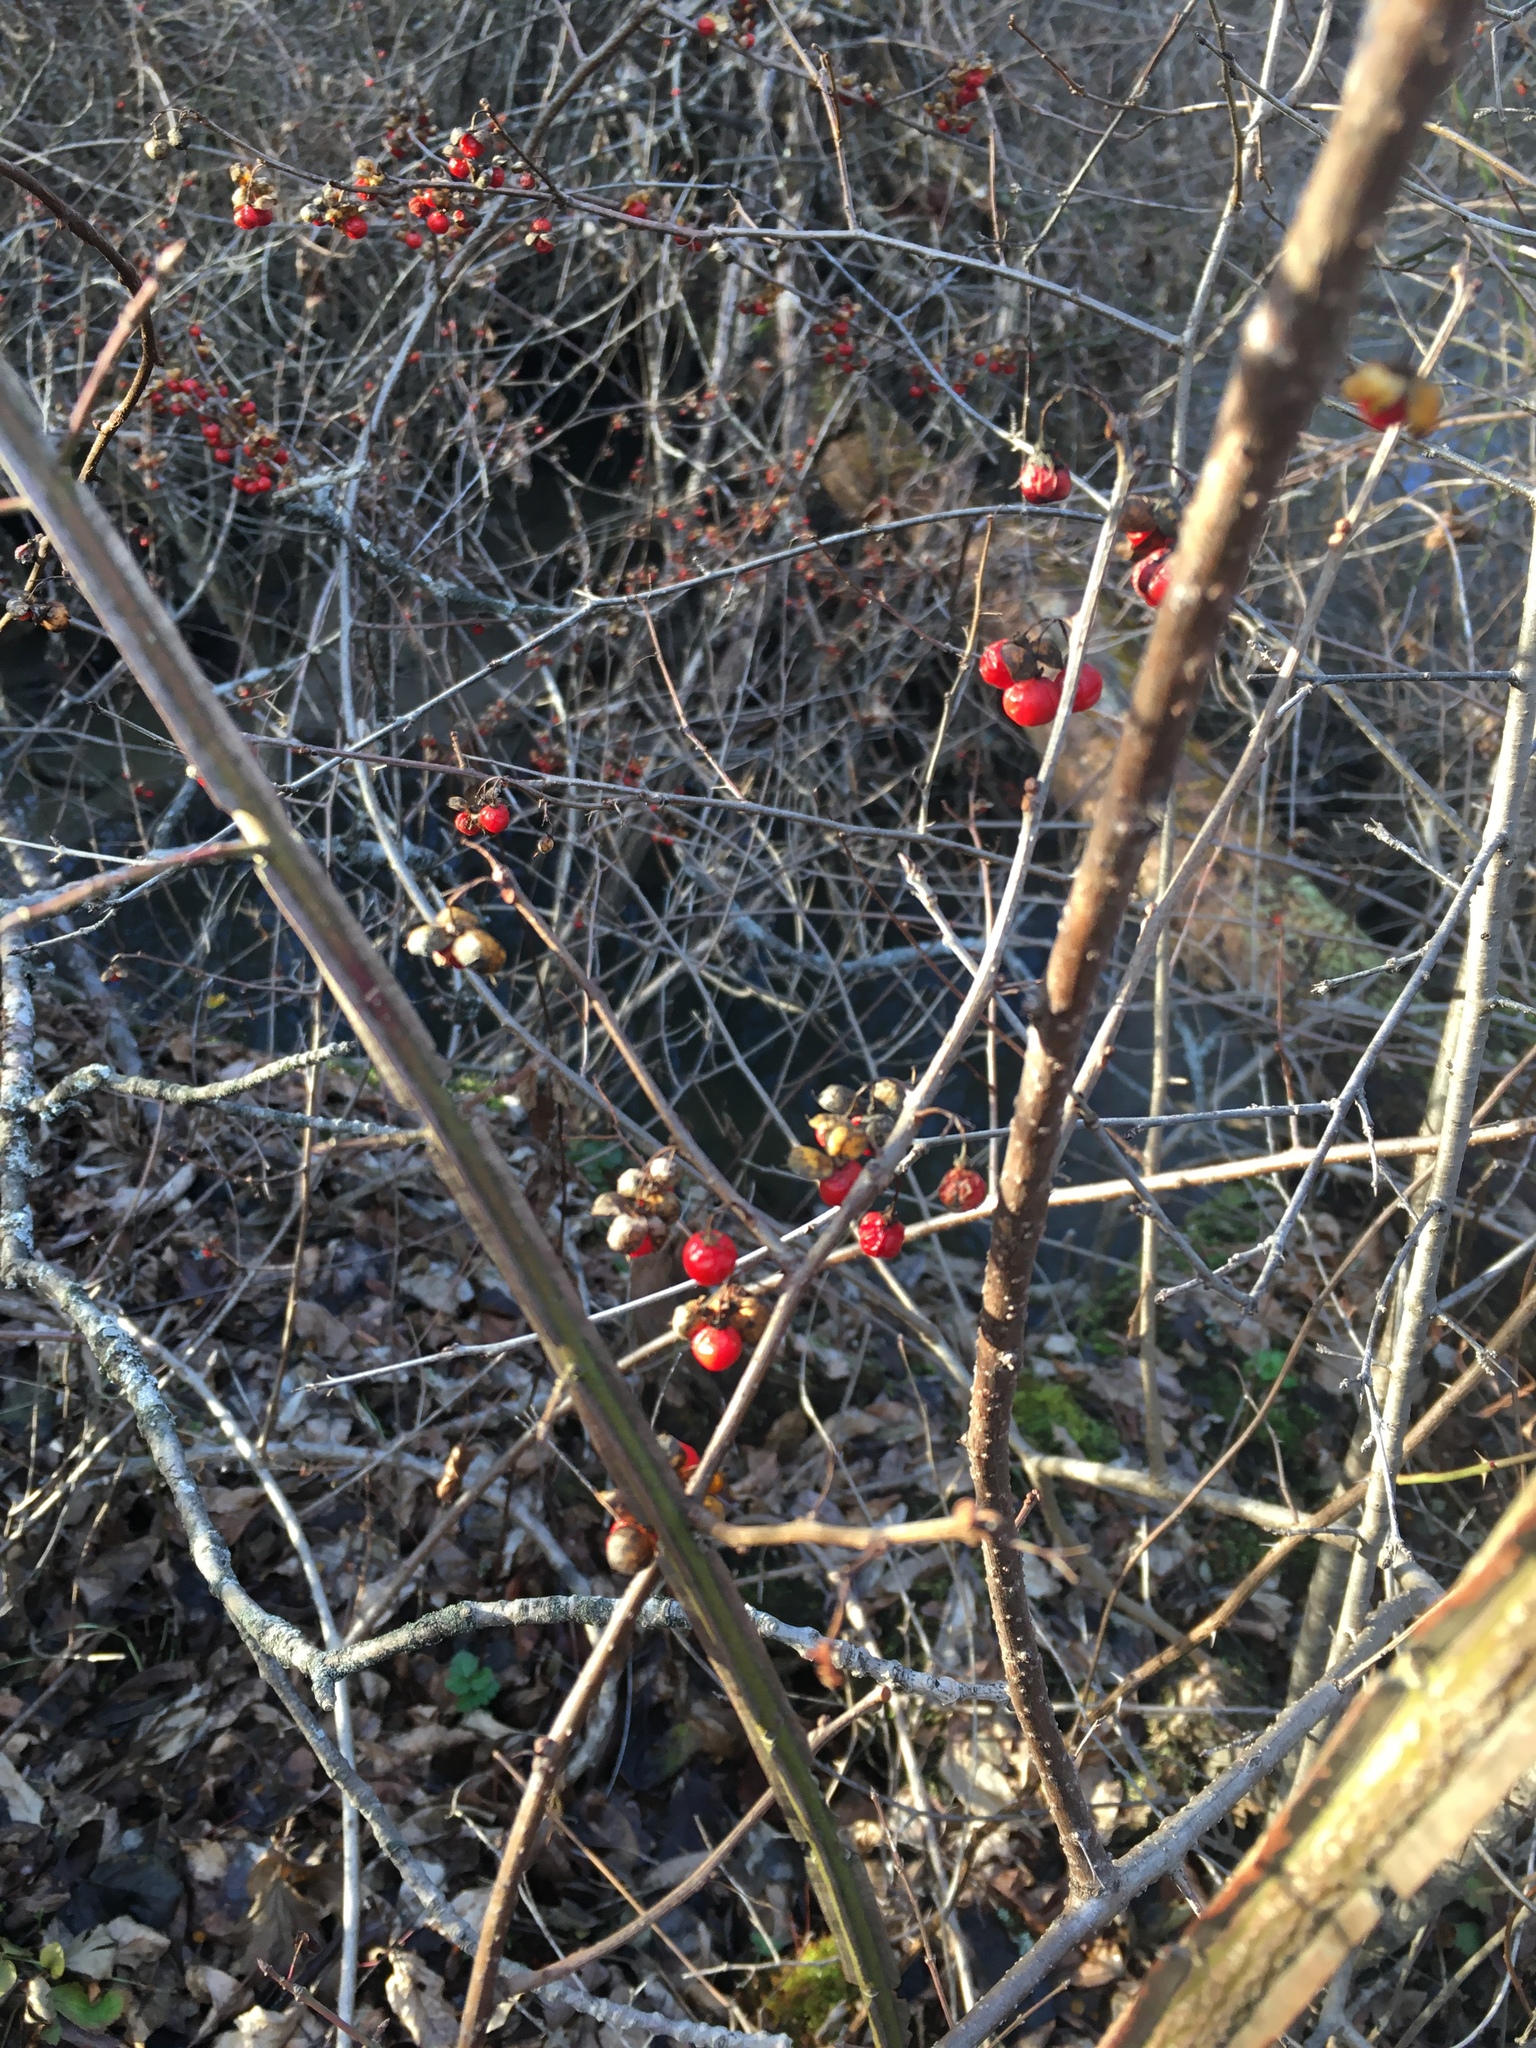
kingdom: Plantae
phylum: Tracheophyta
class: Magnoliopsida
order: Celastrales
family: Celastraceae
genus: Euonymus
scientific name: Euonymus alatus
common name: Winged euonymus
